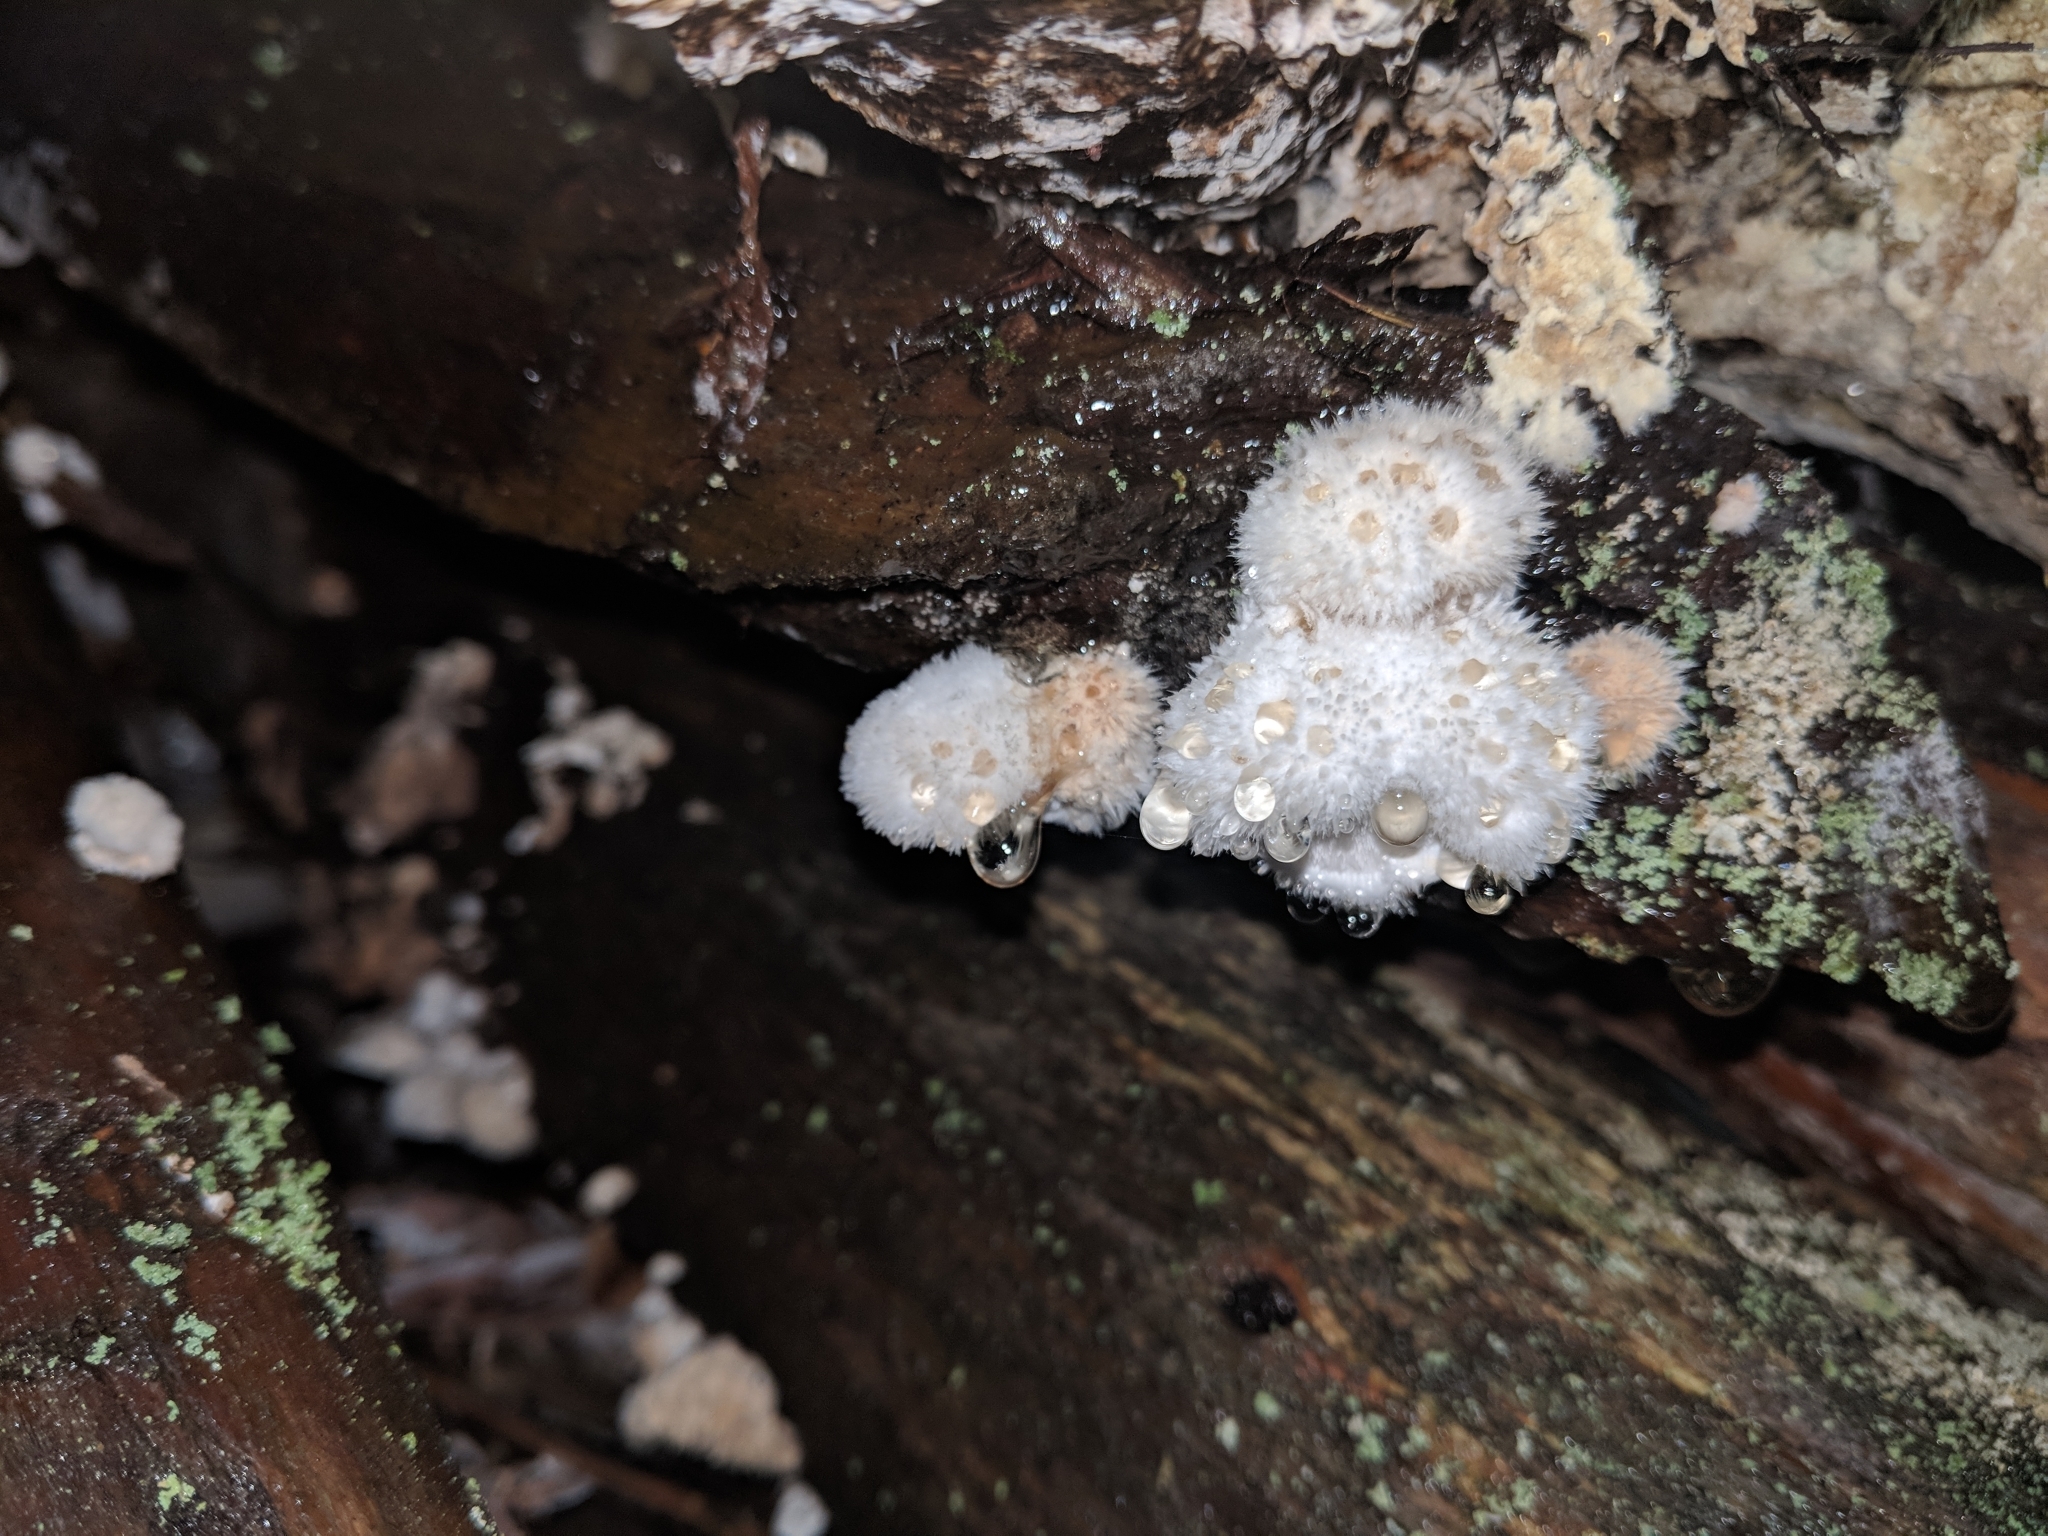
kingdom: Fungi
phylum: Basidiomycota
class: Agaricomycetes
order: Polyporales
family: Dacryobolaceae
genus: Postia
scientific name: Postia ptychogaster
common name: Powderpuff bracket
